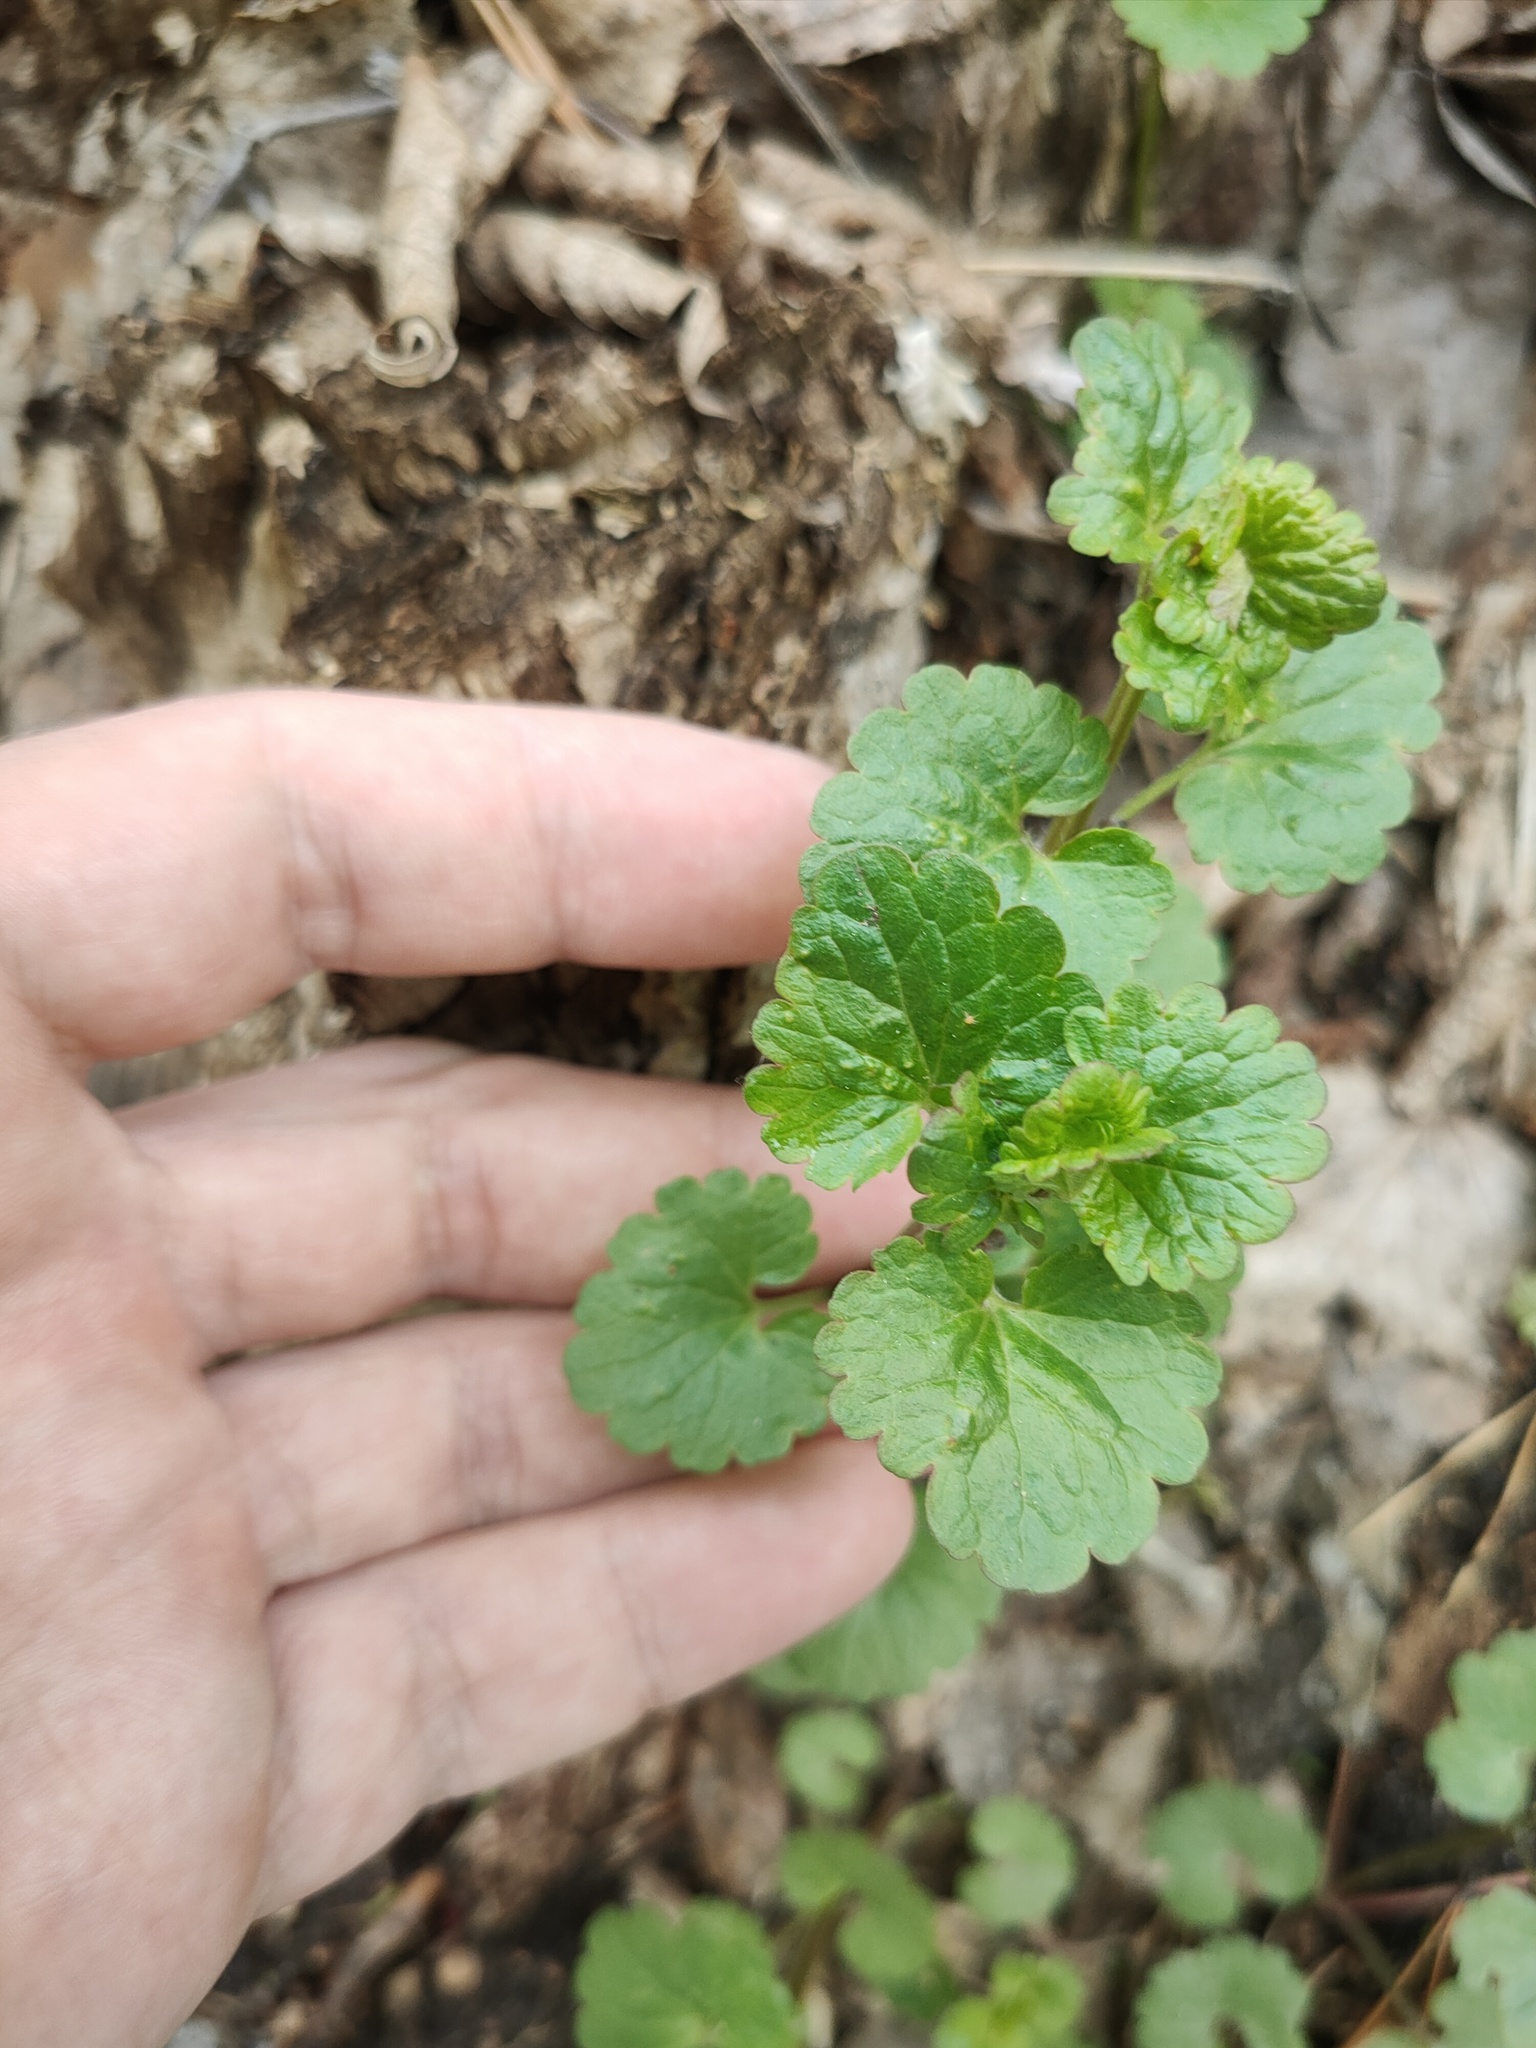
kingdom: Plantae
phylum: Tracheophyta
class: Magnoliopsida
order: Lamiales
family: Lamiaceae
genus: Glechoma
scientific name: Glechoma hederacea
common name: Ground ivy
